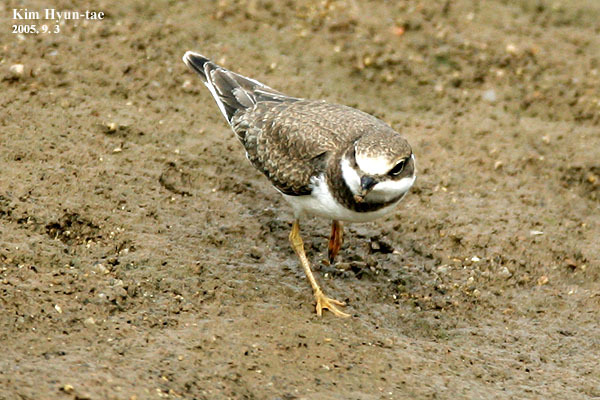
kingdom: Animalia
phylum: Chordata
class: Aves
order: Charadriiformes
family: Charadriidae
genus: Charadrius
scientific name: Charadrius dubius
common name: Little ringed plover
